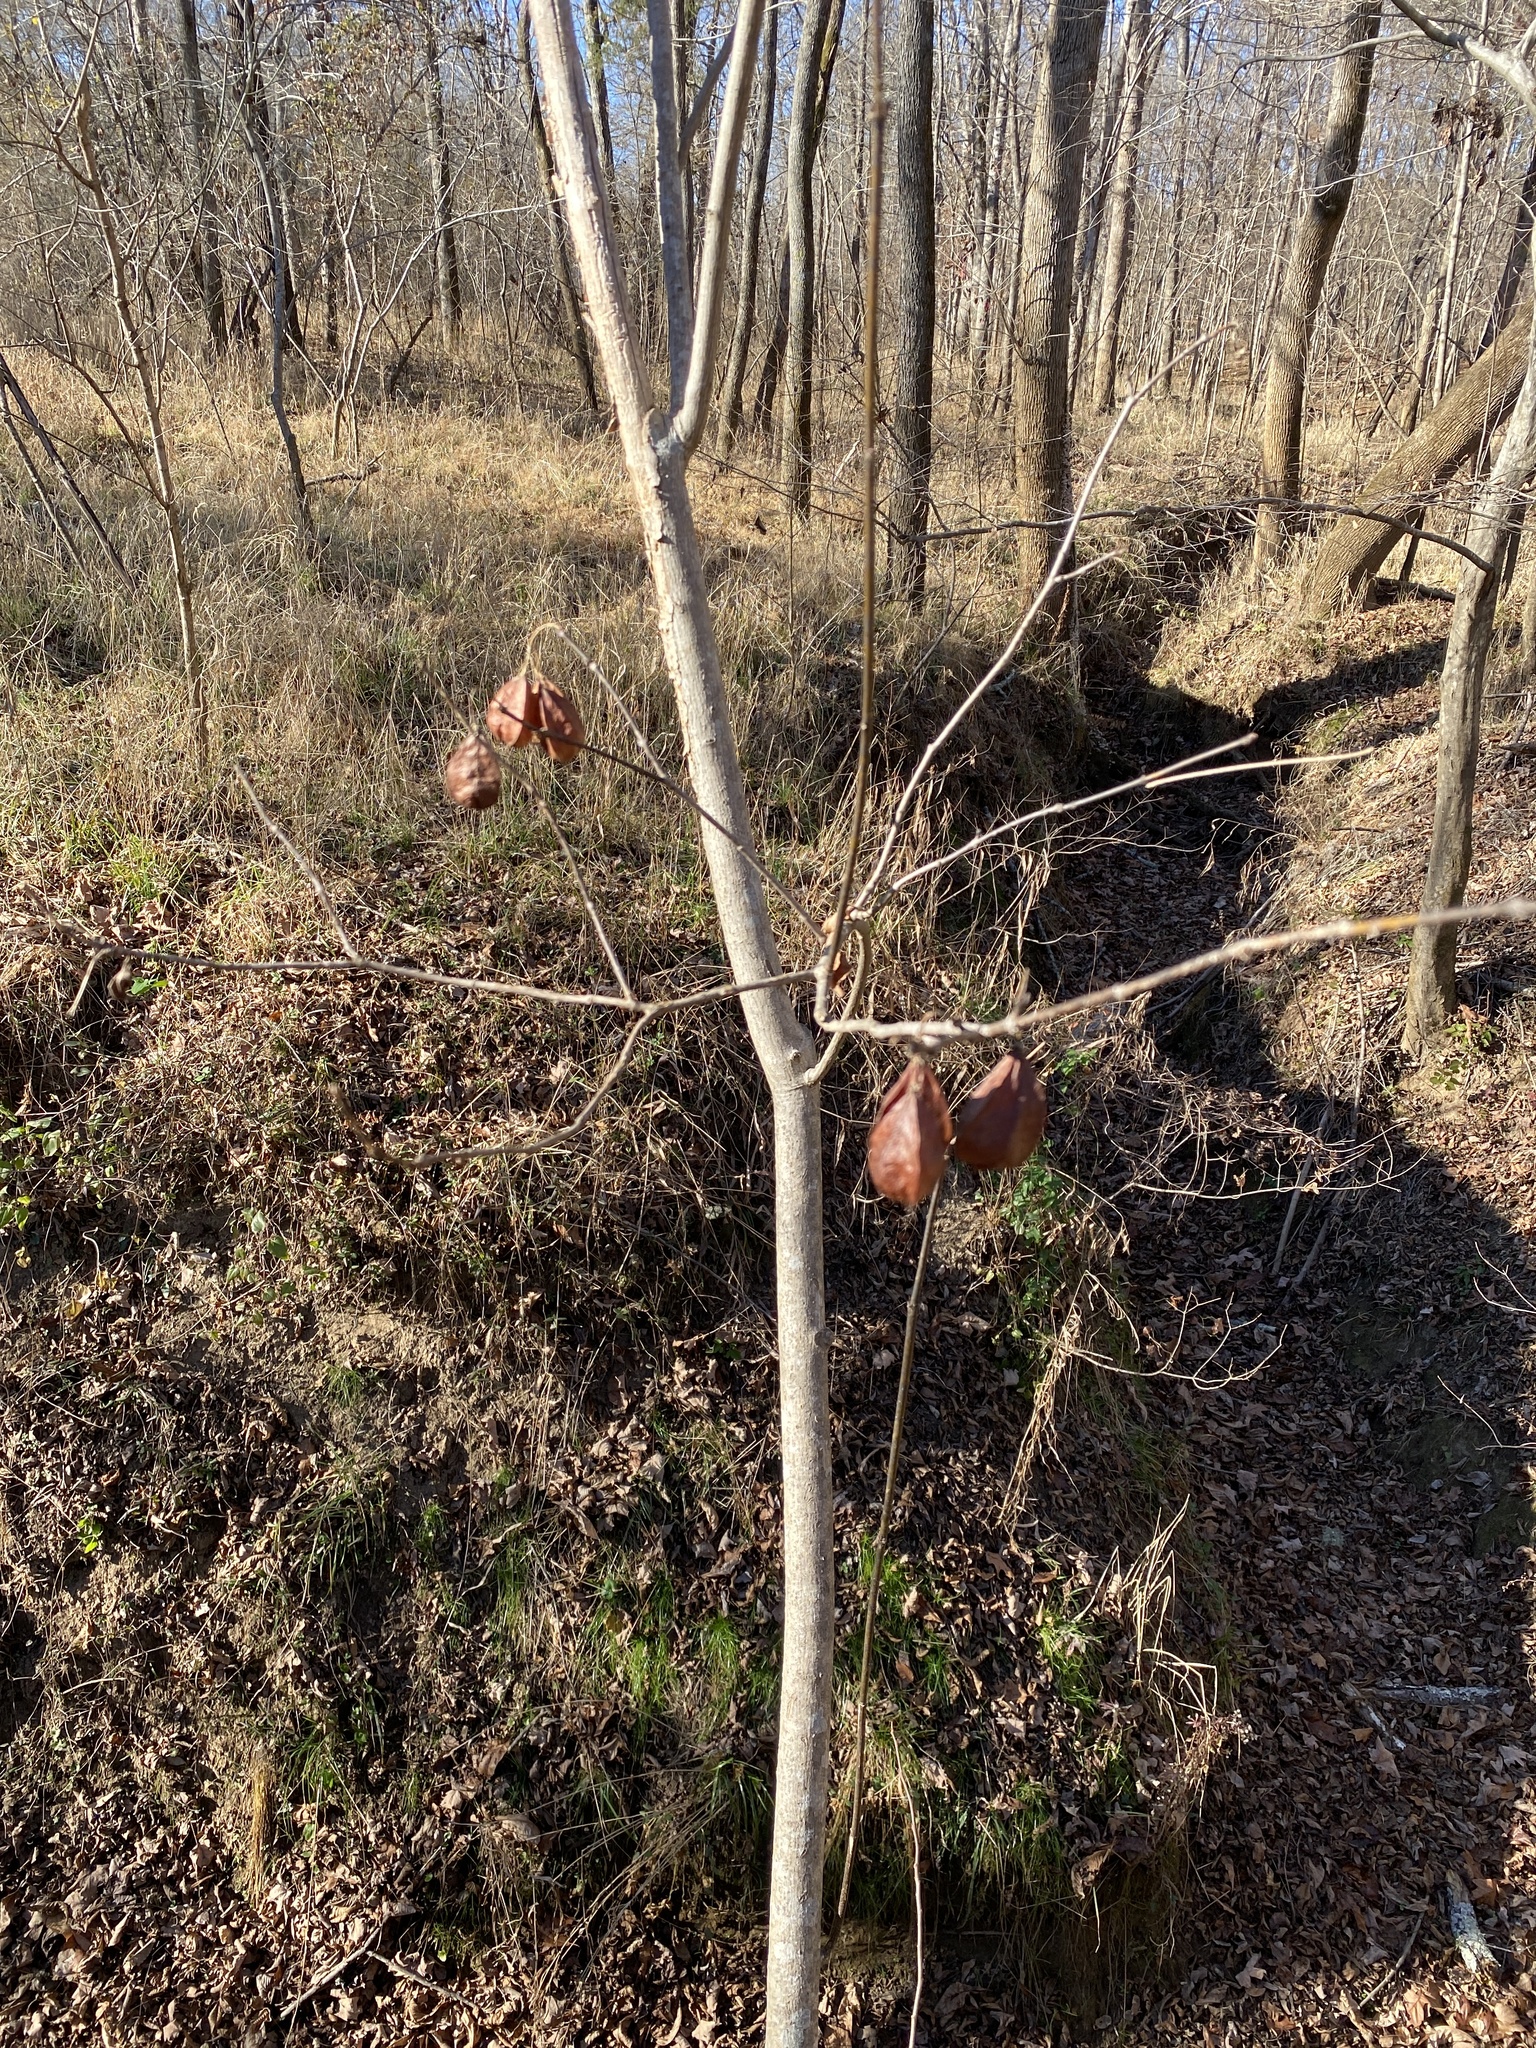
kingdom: Plantae
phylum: Tracheophyta
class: Magnoliopsida
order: Crossosomatales
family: Staphyleaceae
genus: Staphylea
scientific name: Staphylea trifolia
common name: American bladdernut
